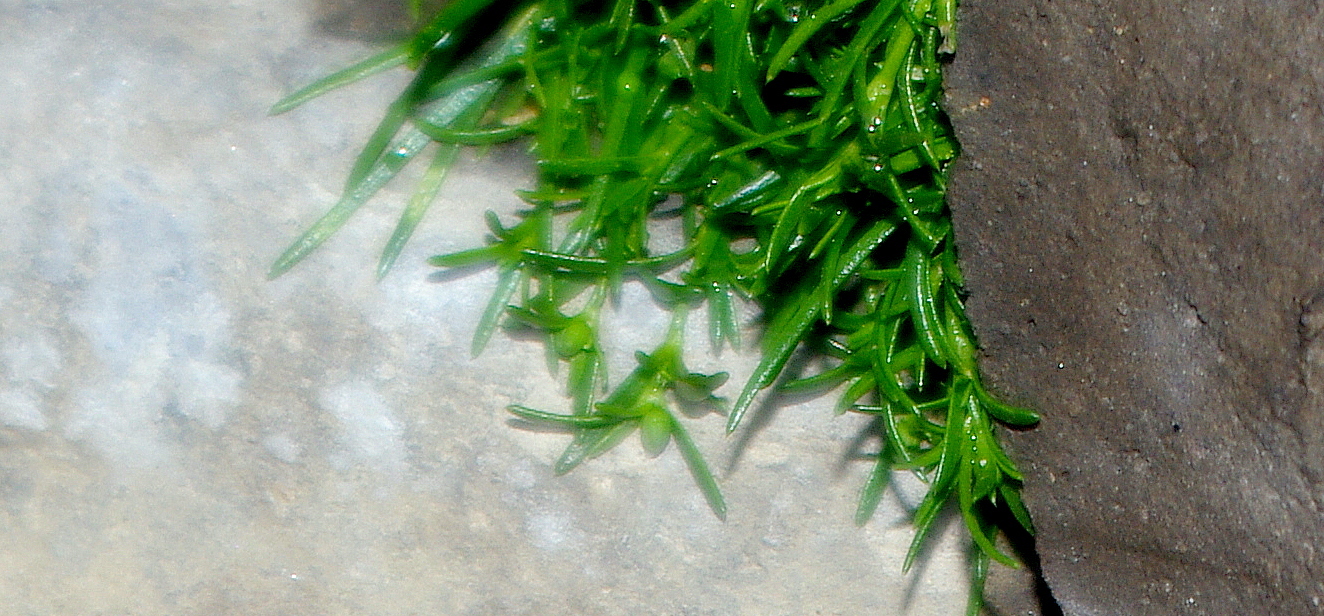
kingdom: Plantae
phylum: Tracheophyta
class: Magnoliopsida
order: Caryophyllales
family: Caryophyllaceae
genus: Sagina
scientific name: Sagina procumbens
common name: Procumbent pearlwort
